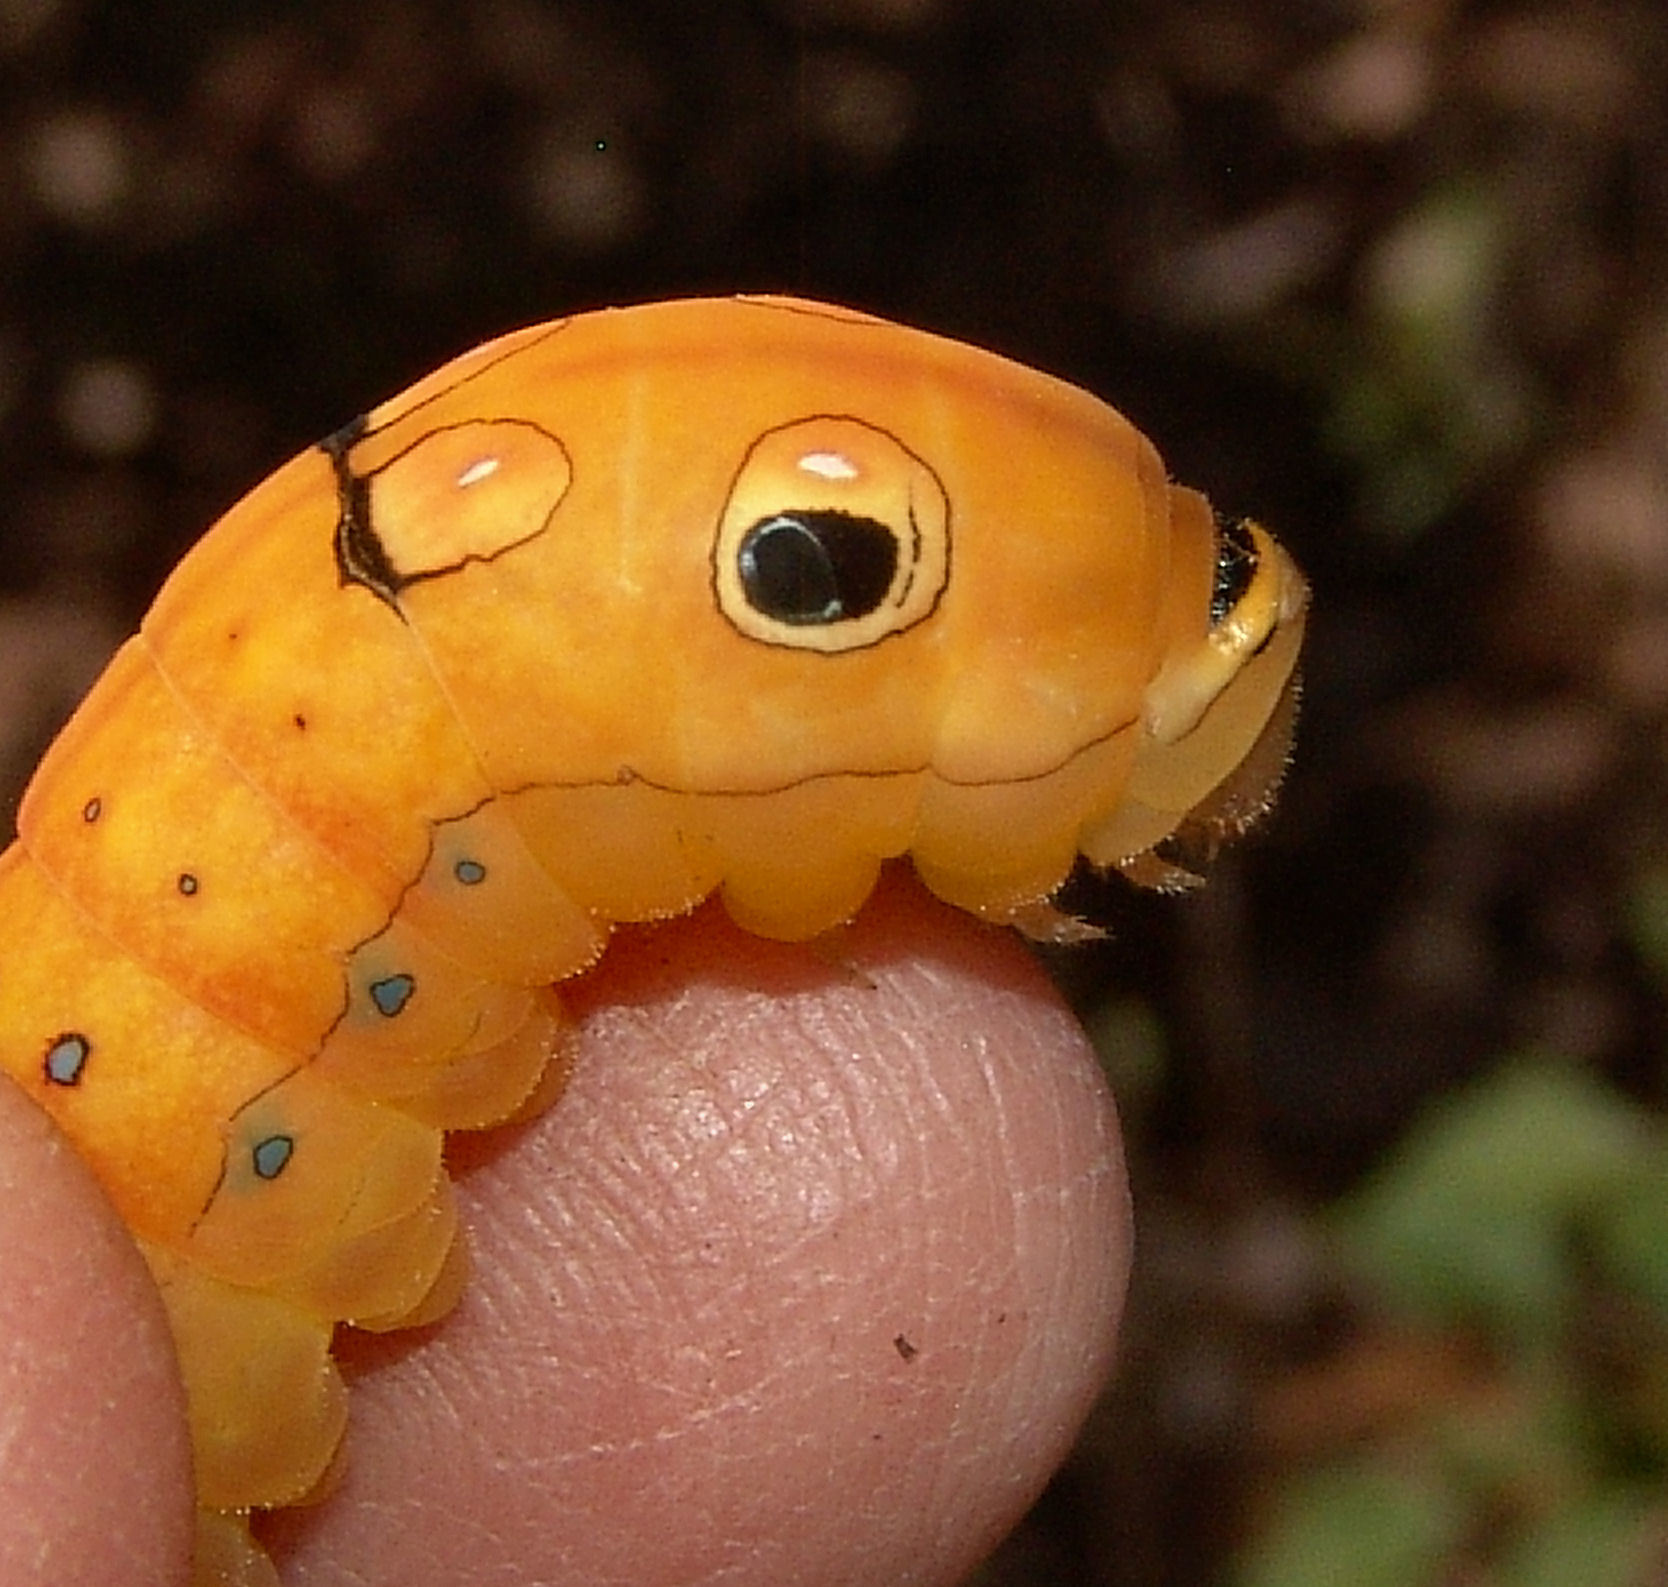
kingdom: Animalia
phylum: Arthropoda
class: Insecta
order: Lepidoptera
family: Papilionidae
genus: Papilio
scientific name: Papilio troilus
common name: Spicebush swallowtail
